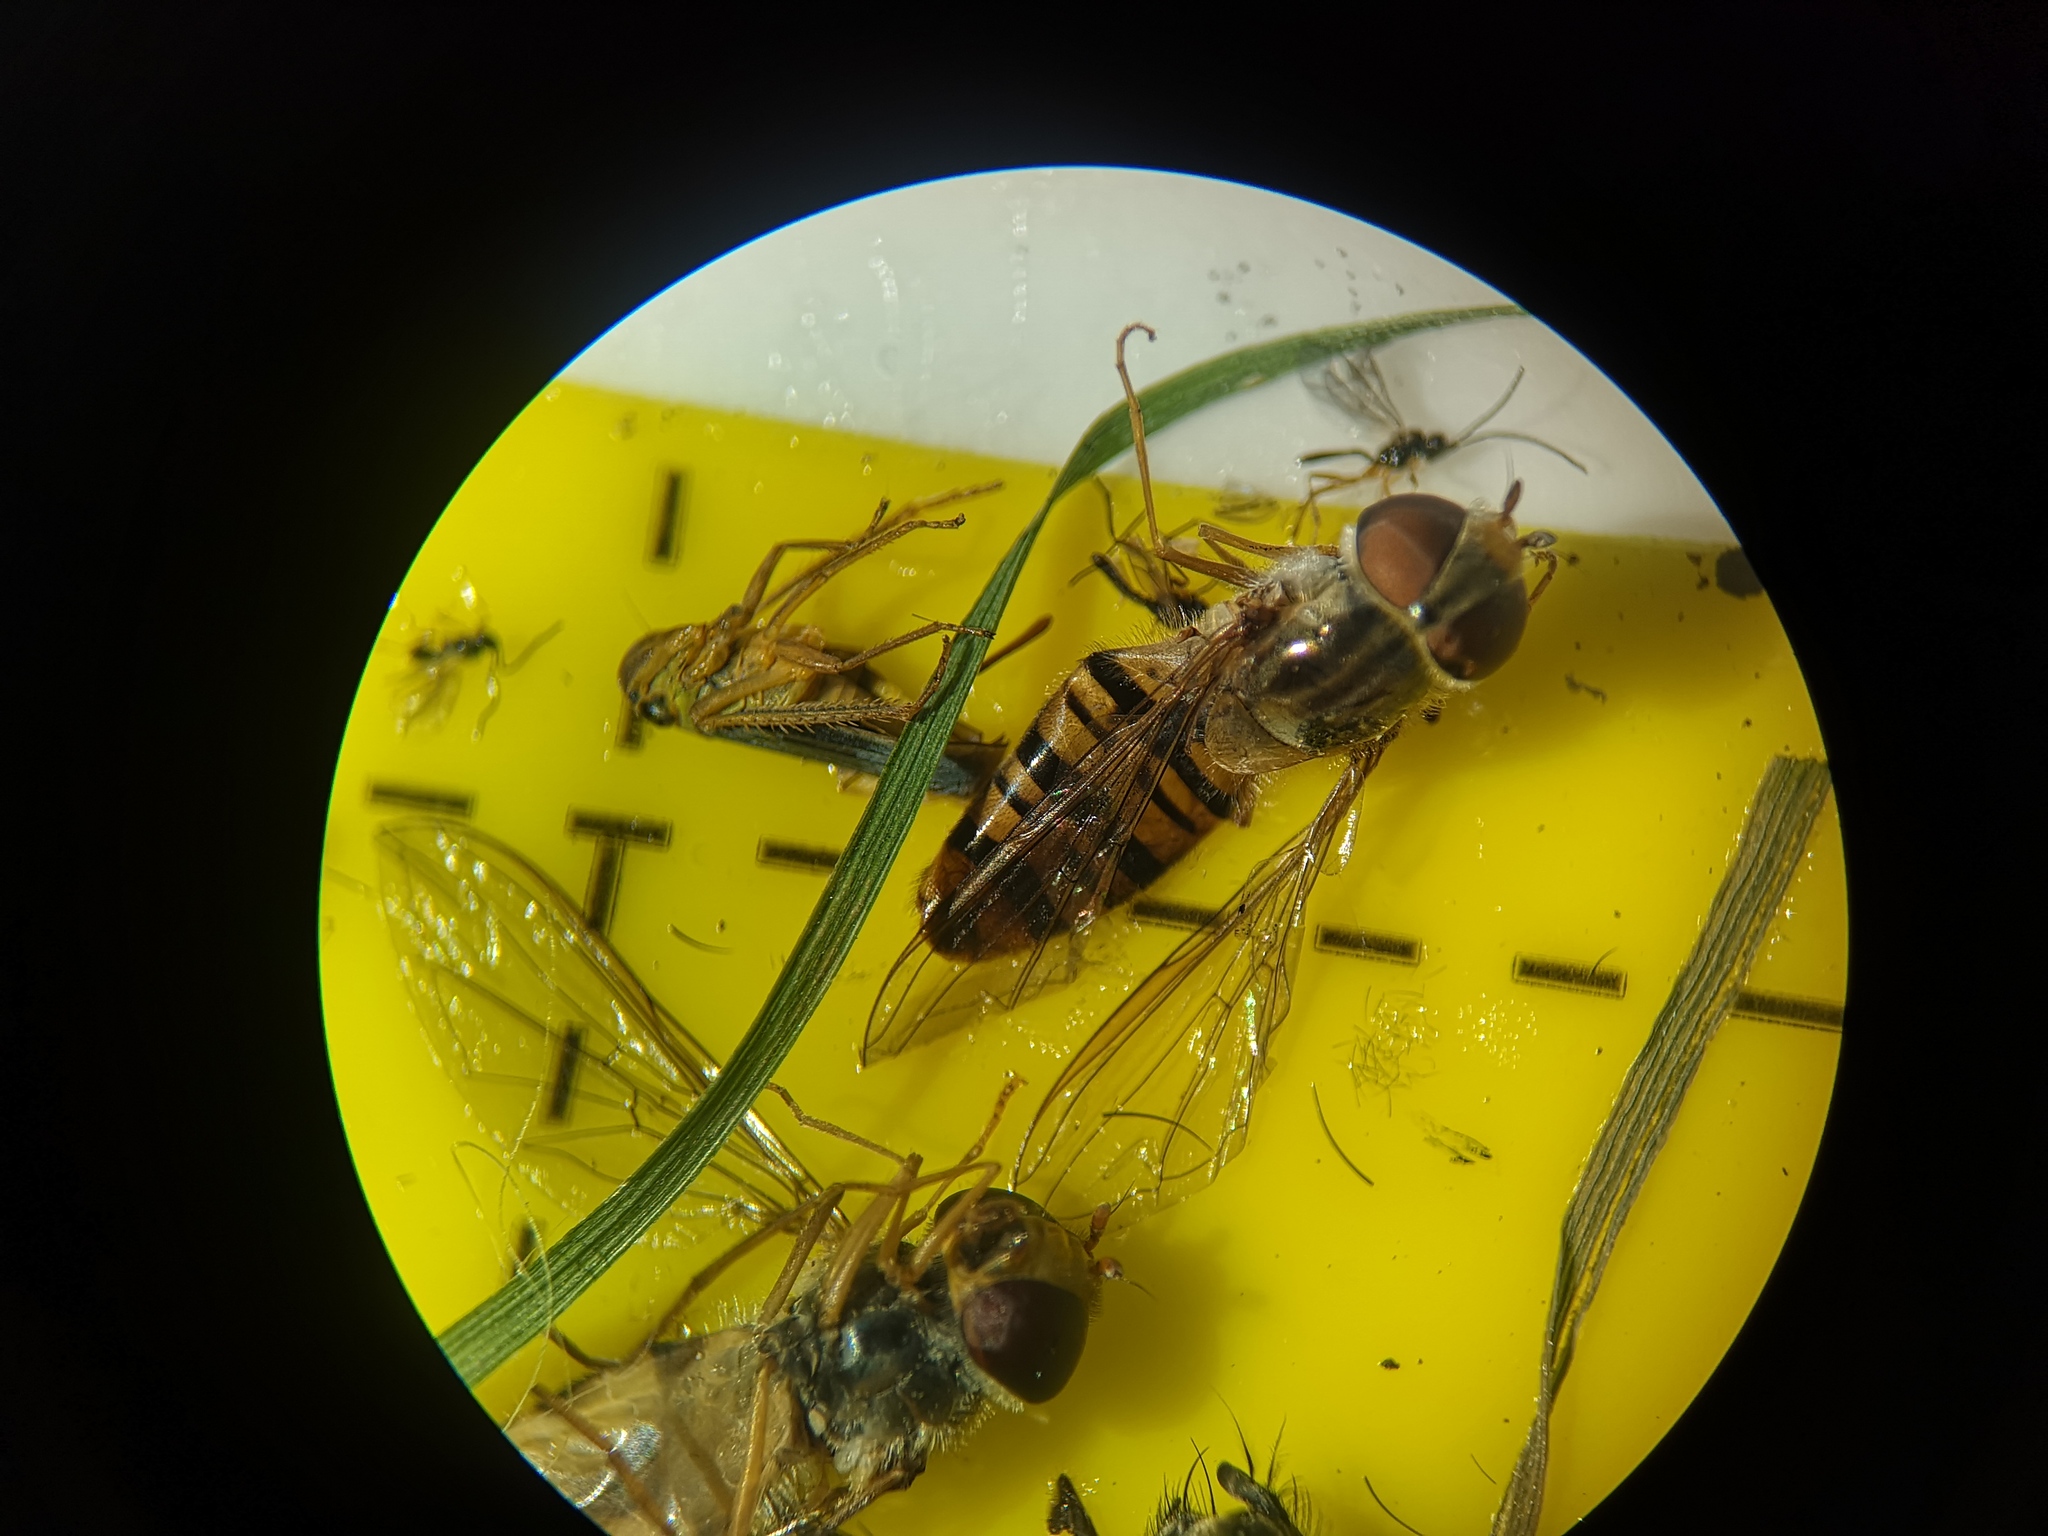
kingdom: Animalia
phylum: Arthropoda
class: Insecta
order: Diptera
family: Syrphidae
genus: Episyrphus
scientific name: Episyrphus balteatus
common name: Marmalade hoverfly
